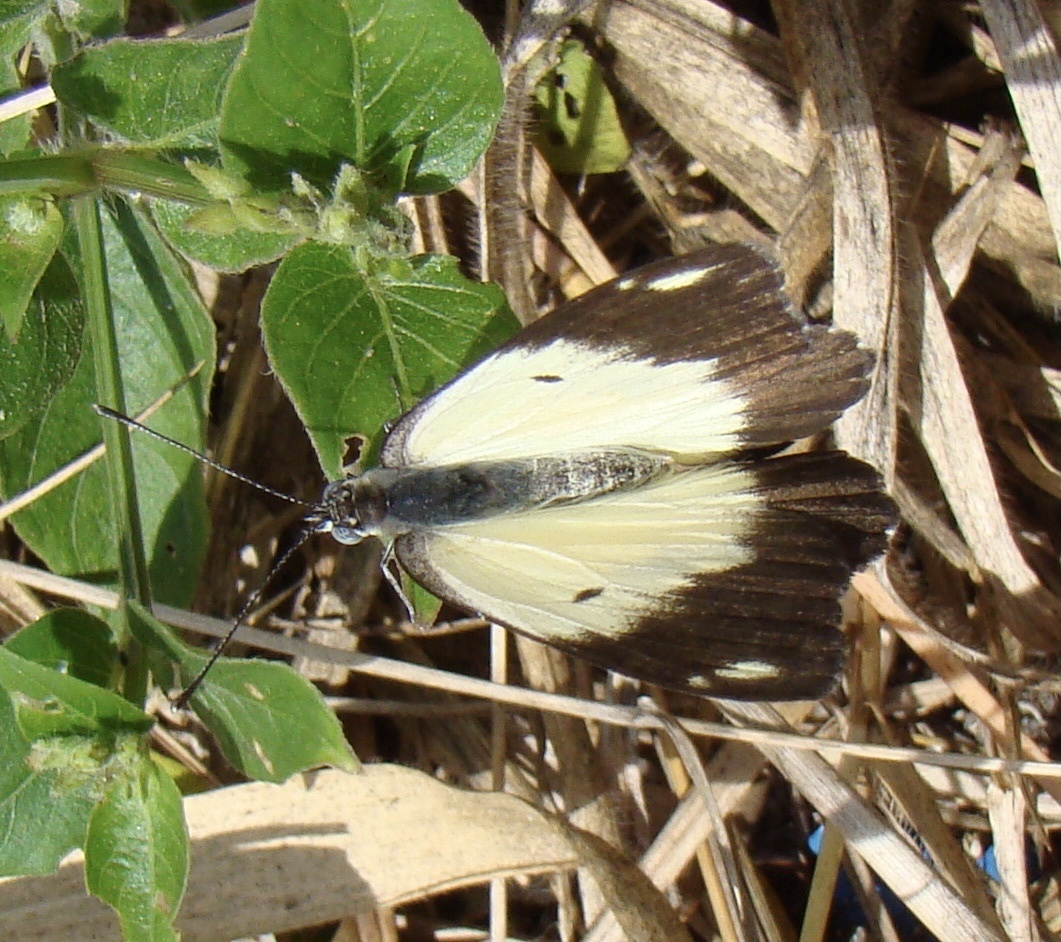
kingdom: Animalia
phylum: Arthropoda
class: Insecta
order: Lepidoptera
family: Pieridae
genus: Belenois
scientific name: Belenois creona
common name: African caper white
